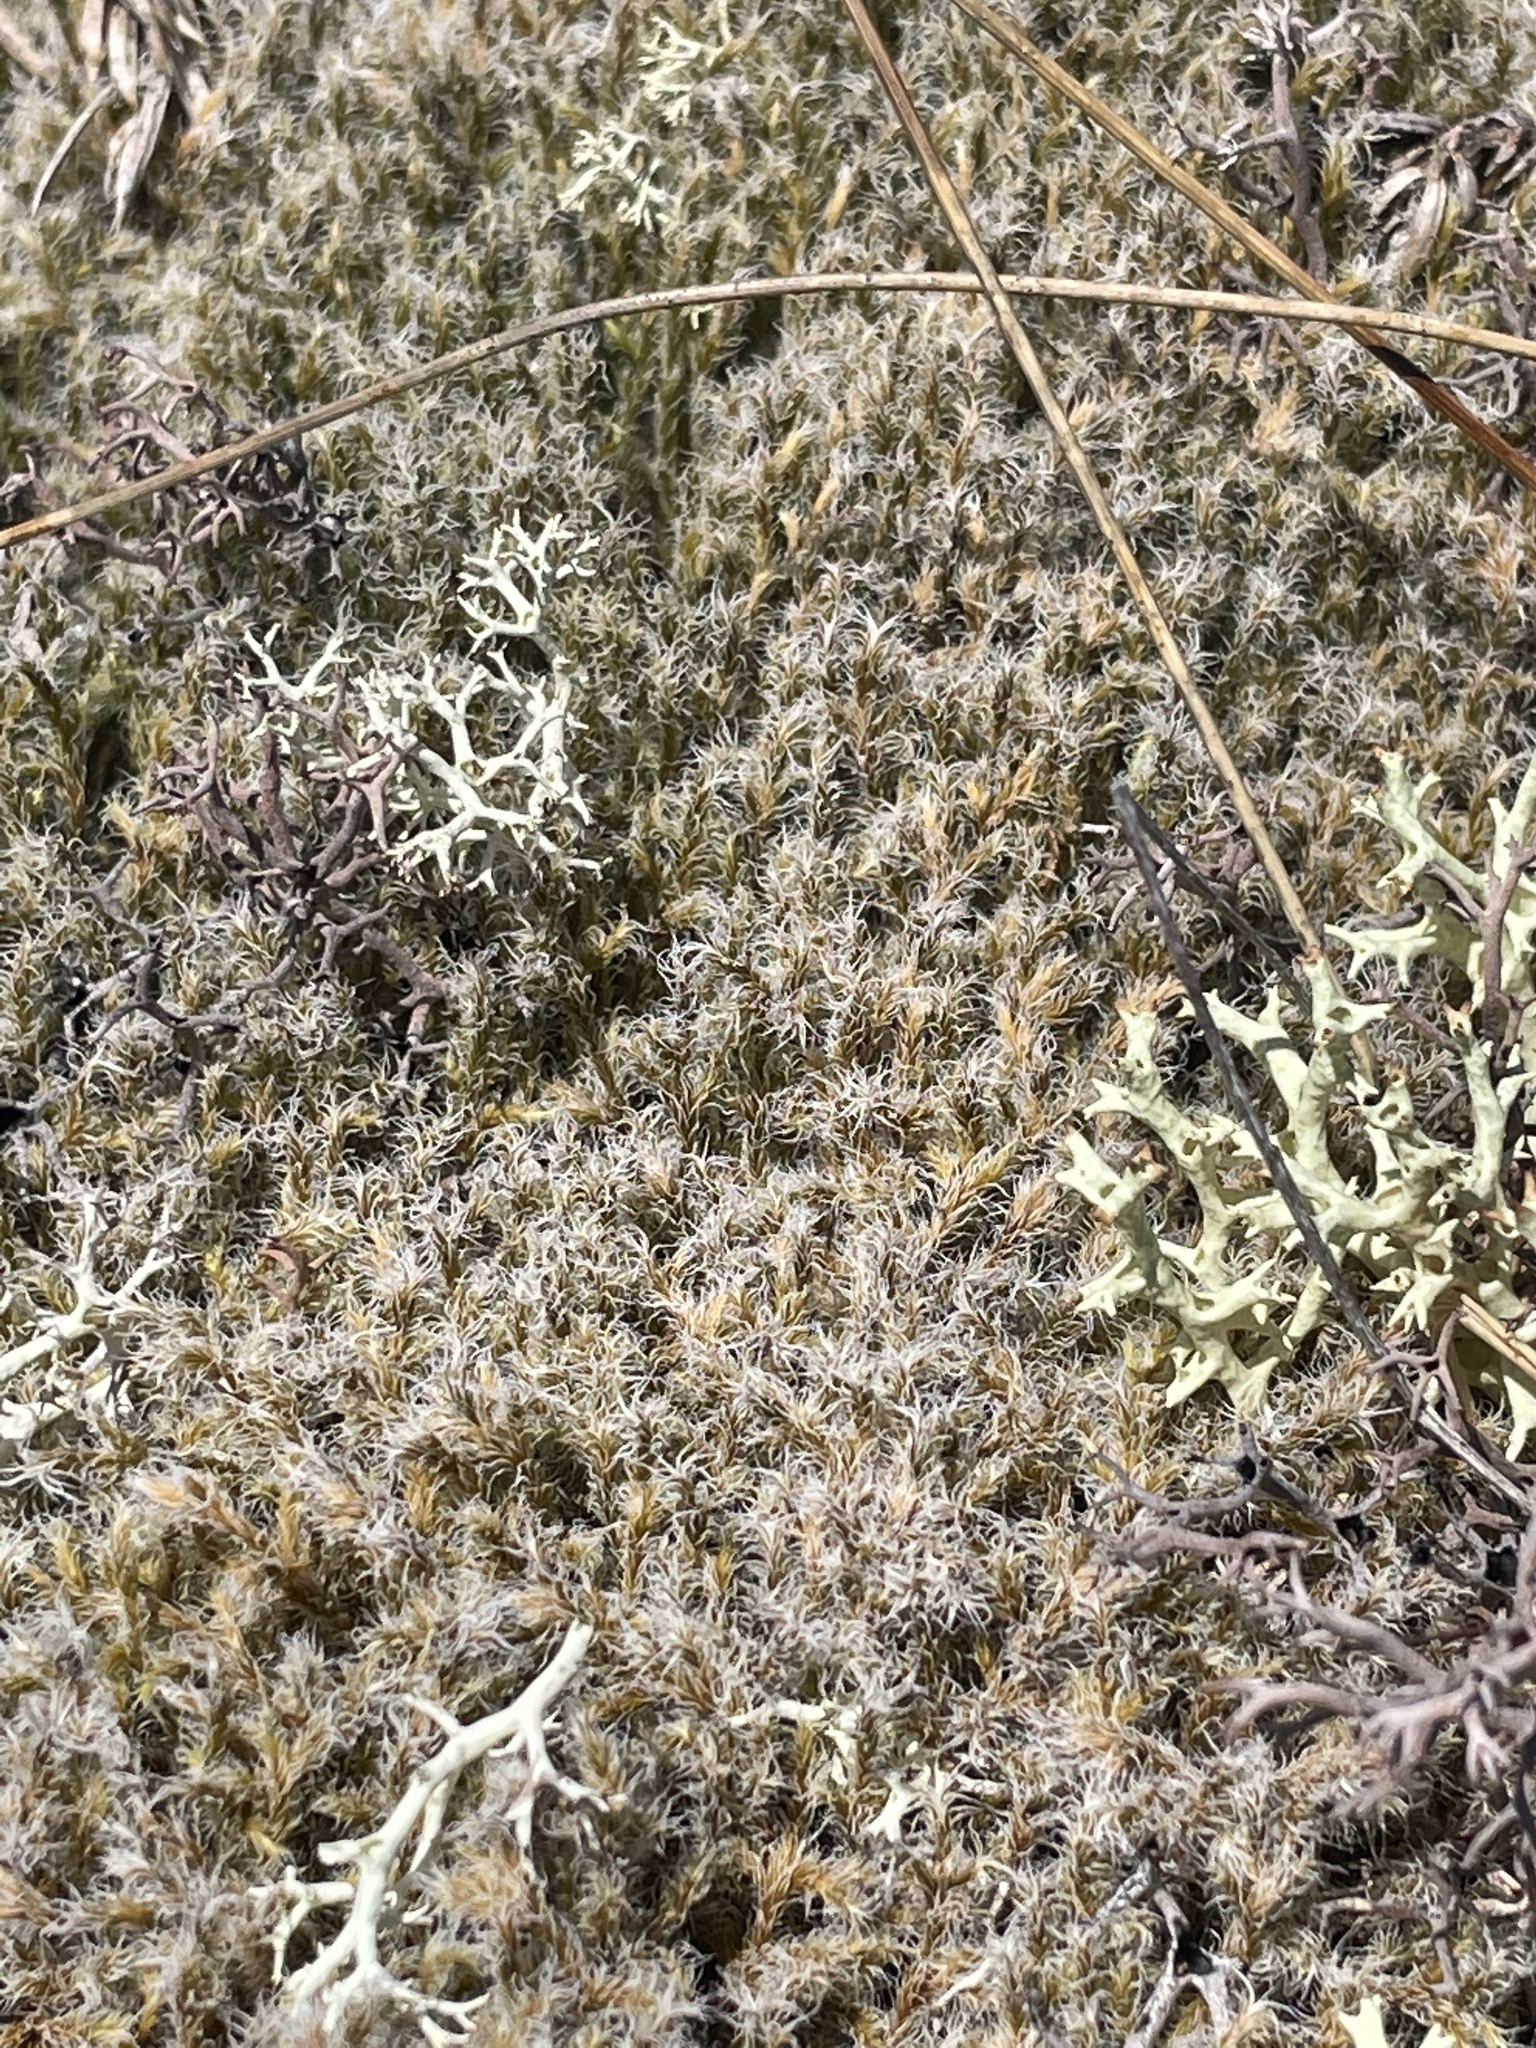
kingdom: Plantae
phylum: Bryophyta
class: Bryopsida
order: Grimmiales
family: Grimmiaceae
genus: Racomitrium
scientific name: Racomitrium lanuginosum
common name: Hoary rock moss
